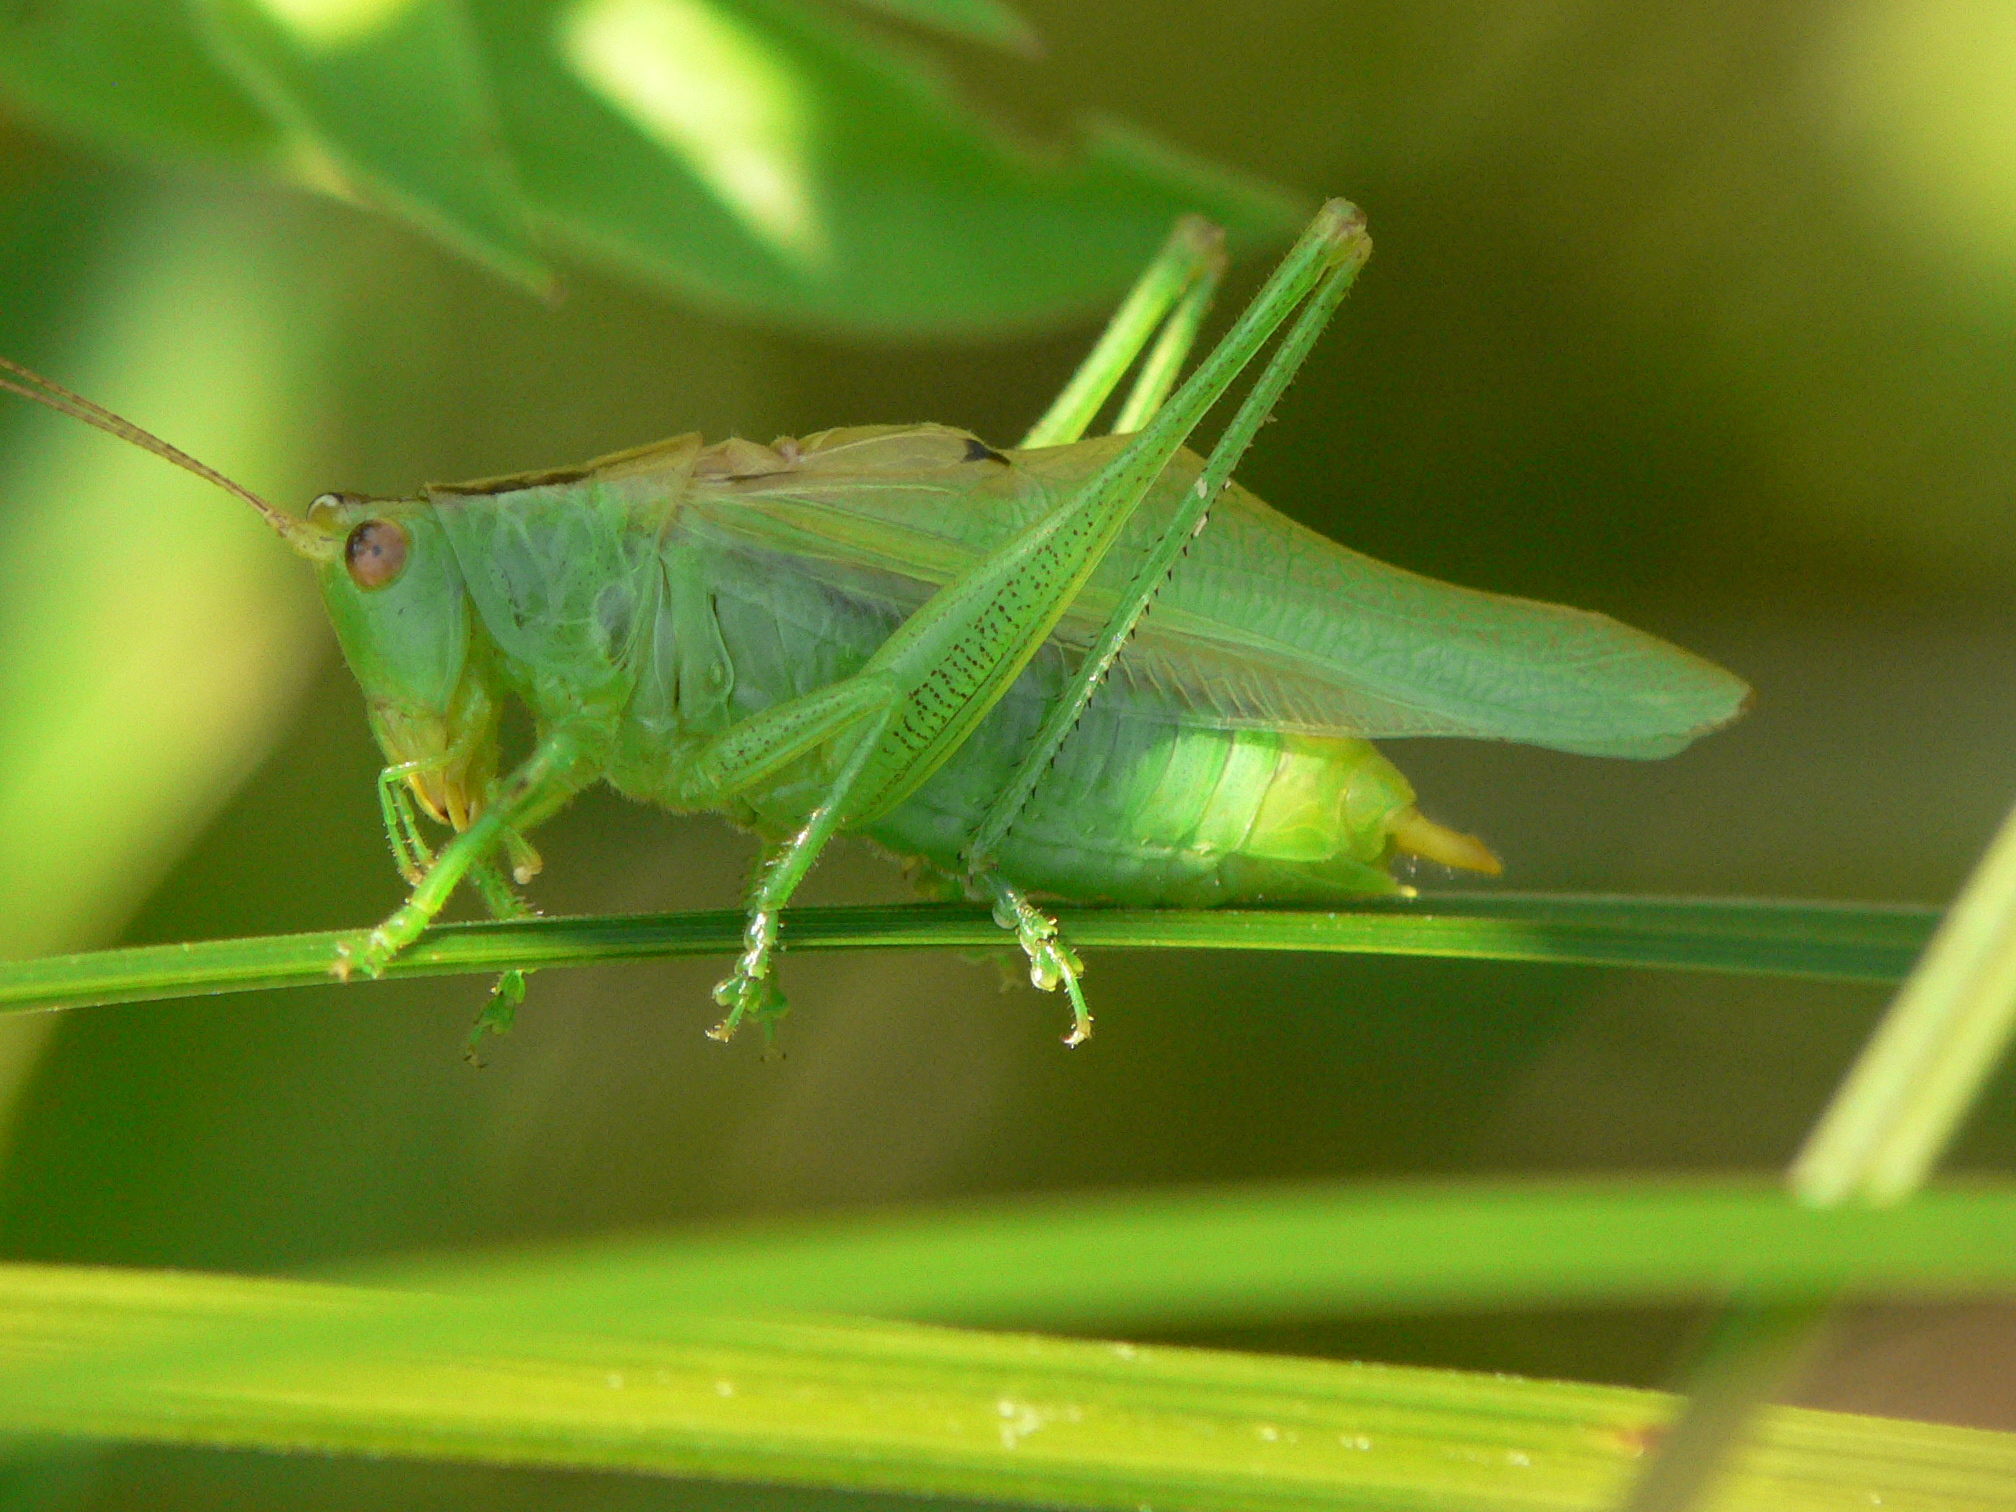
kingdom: Animalia
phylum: Arthropoda
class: Insecta
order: Orthoptera
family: Tettigoniidae
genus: Orchelimum
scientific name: Orchelimum gladiator
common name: Gladiator meadow katydid
